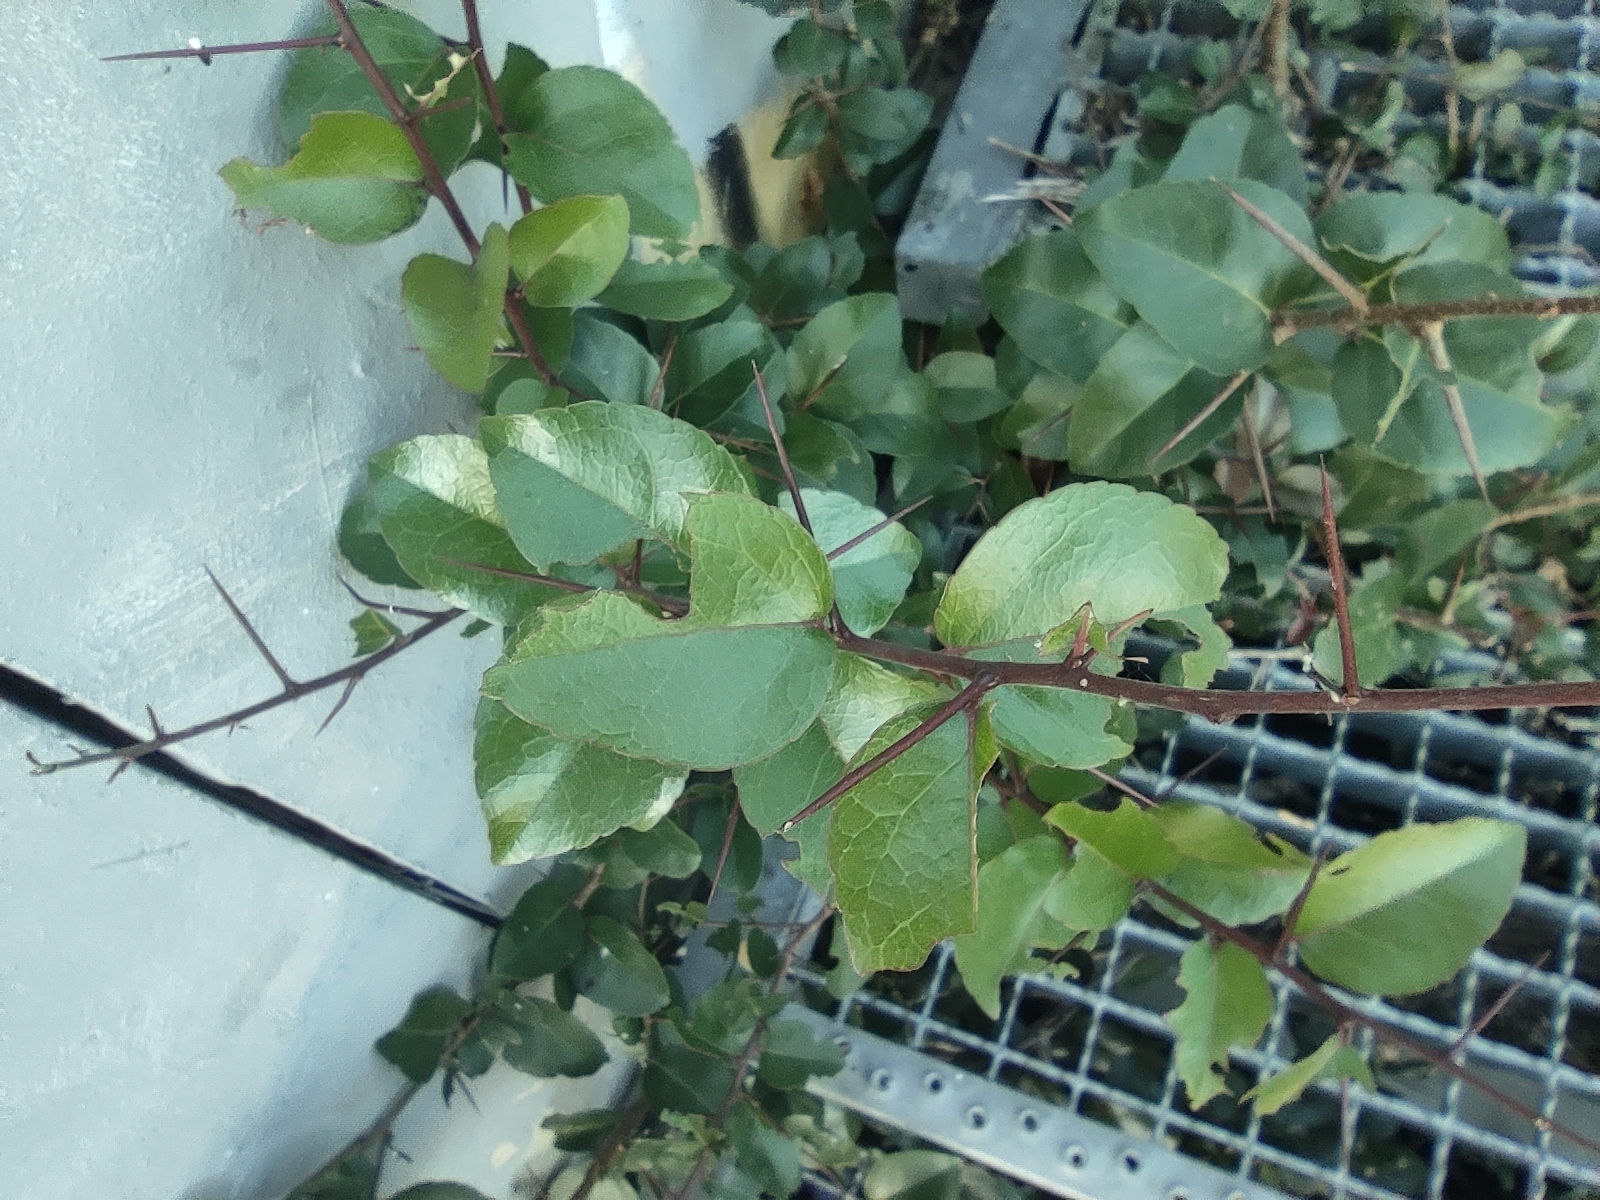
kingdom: Plantae
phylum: Tracheophyta
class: Magnoliopsida
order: Malpighiales
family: Salicaceae
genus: Flacourtia
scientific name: Flacourtia indica
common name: Governor's plum
